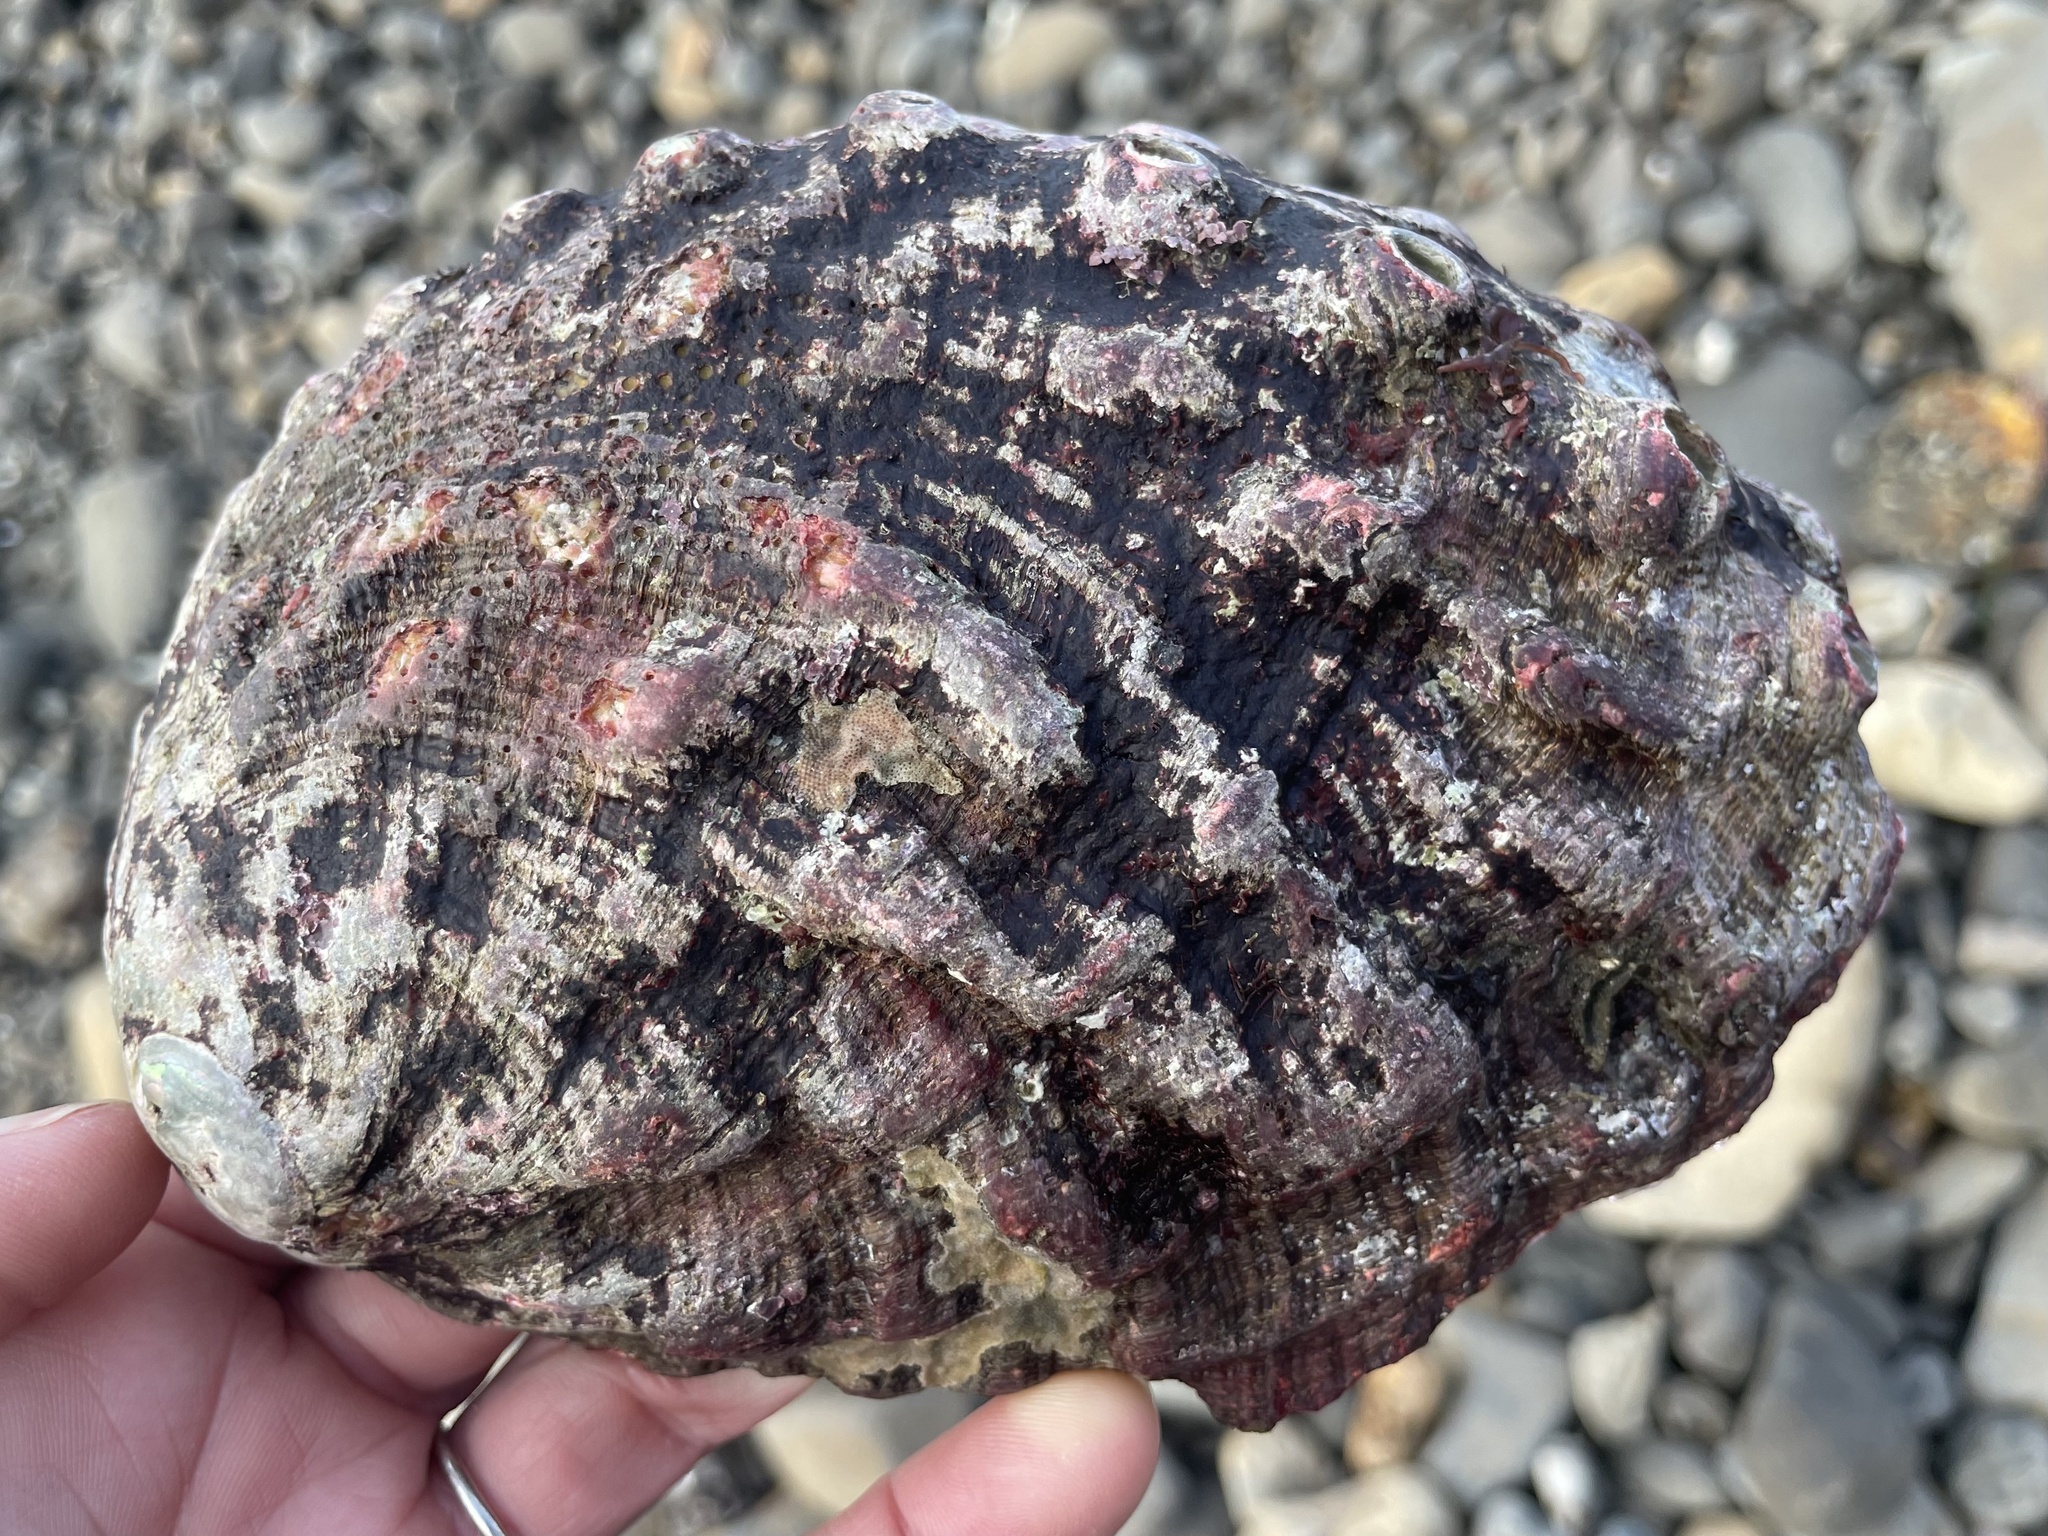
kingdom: Animalia
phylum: Mollusca
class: Gastropoda
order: Lepetellida
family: Haliotidae
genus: Haliotis
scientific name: Haliotis rufescens
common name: Red abalone
